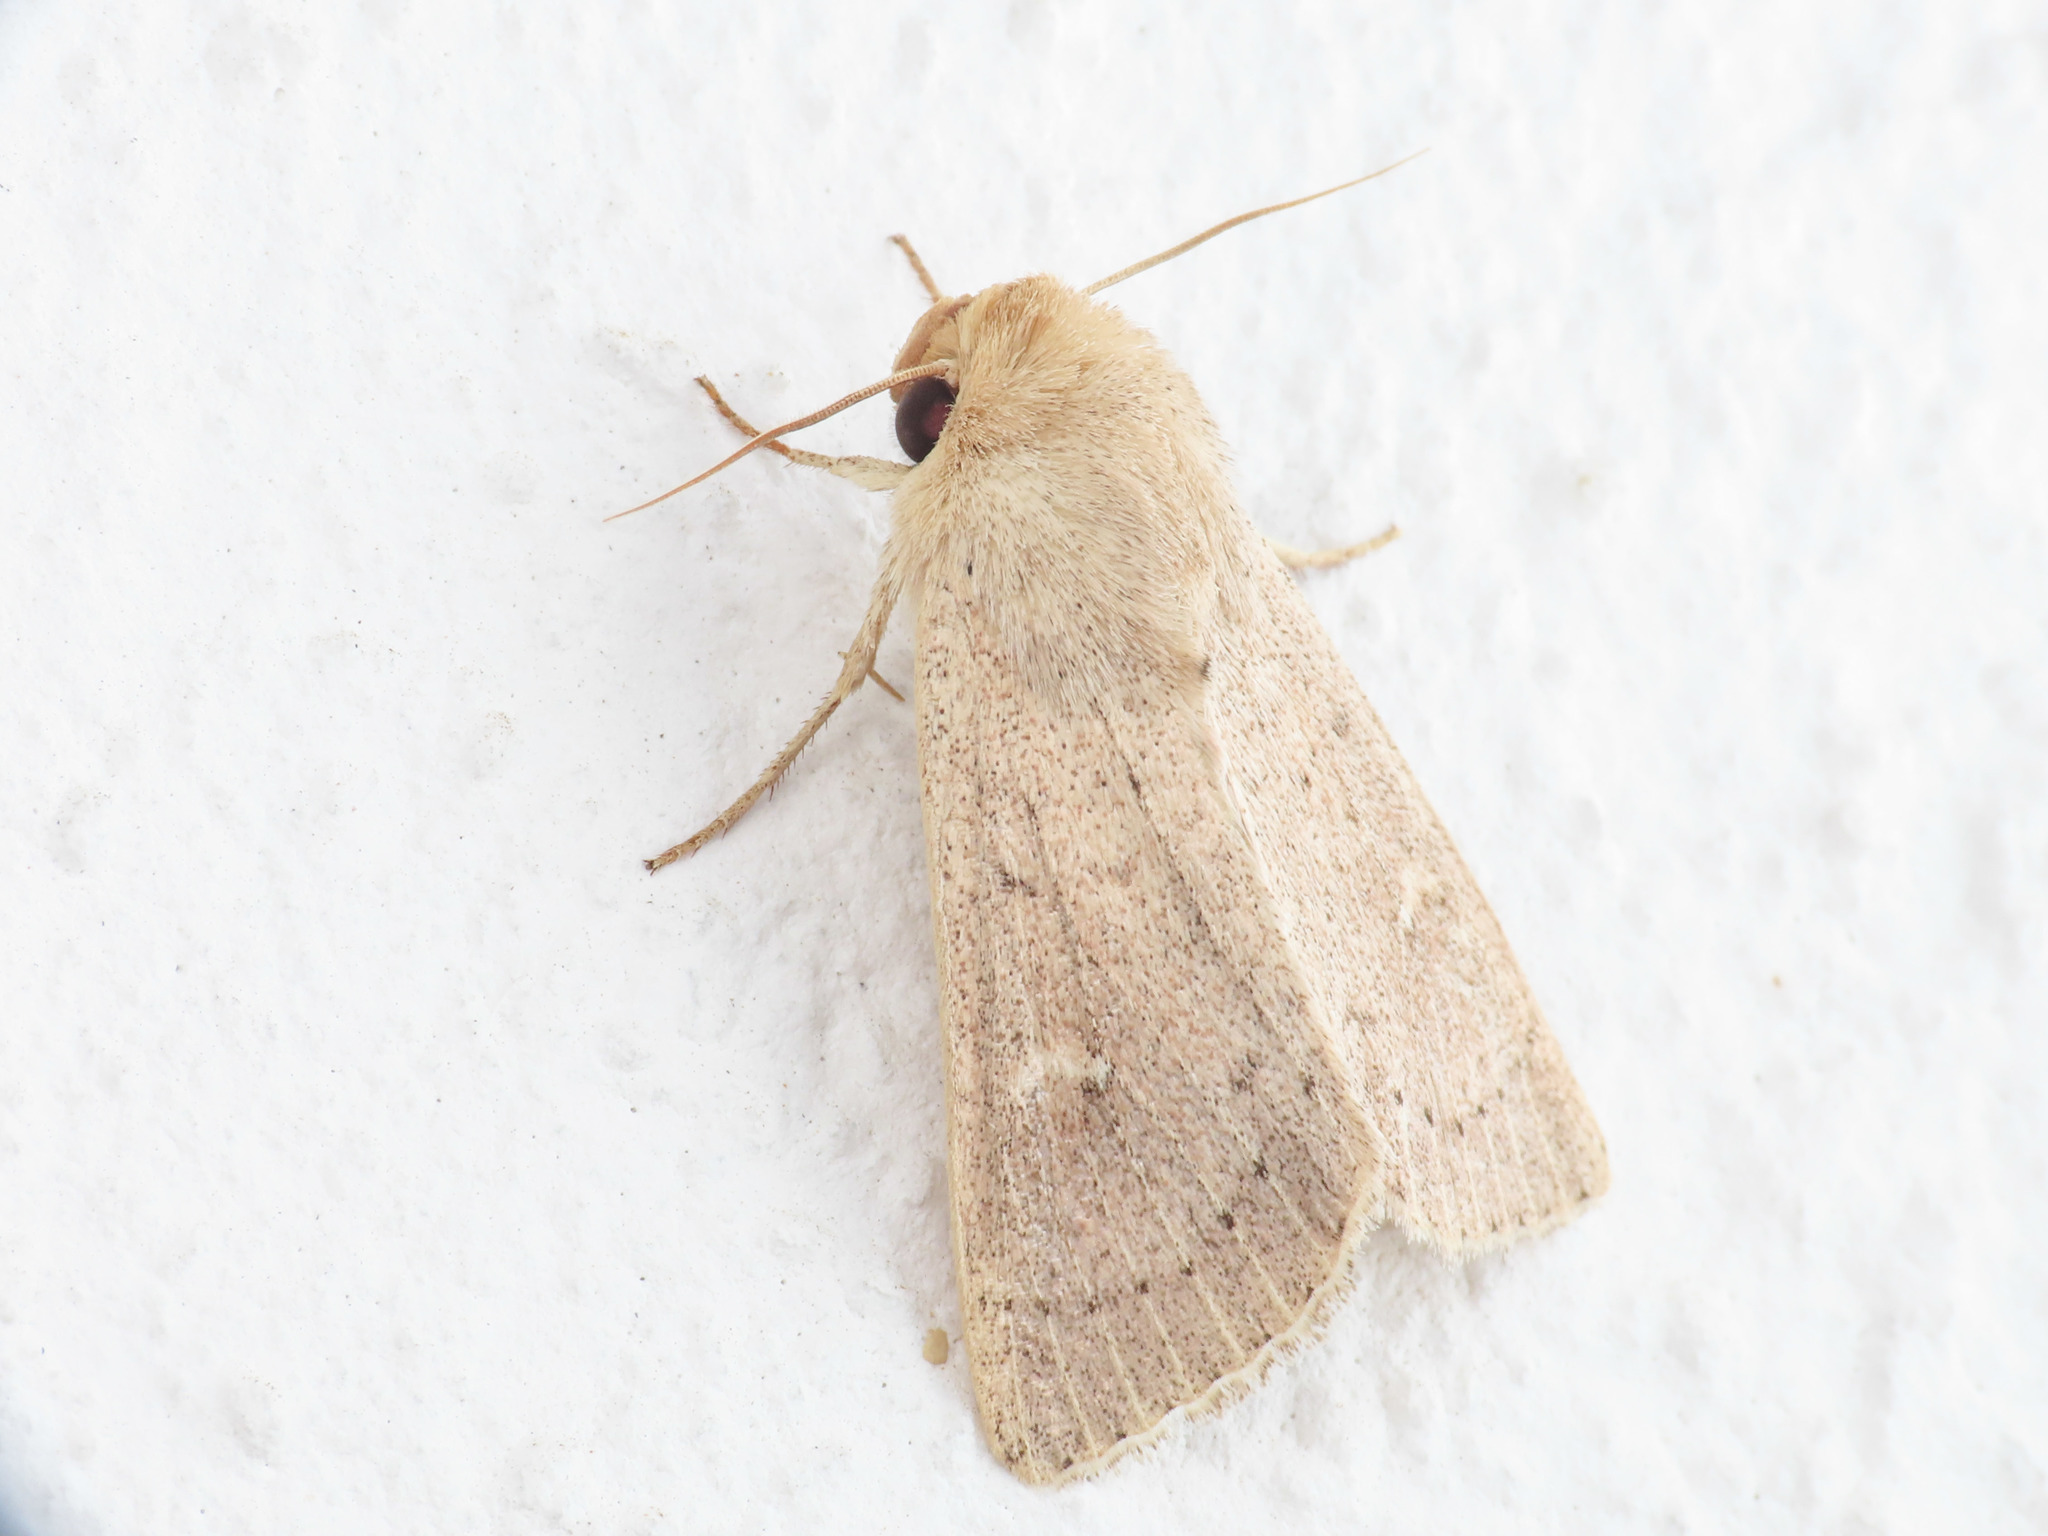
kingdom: Animalia
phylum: Arthropoda
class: Insecta
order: Lepidoptera
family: Noctuidae
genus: Mythimna
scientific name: Mythimna vitellina
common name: Delicate
